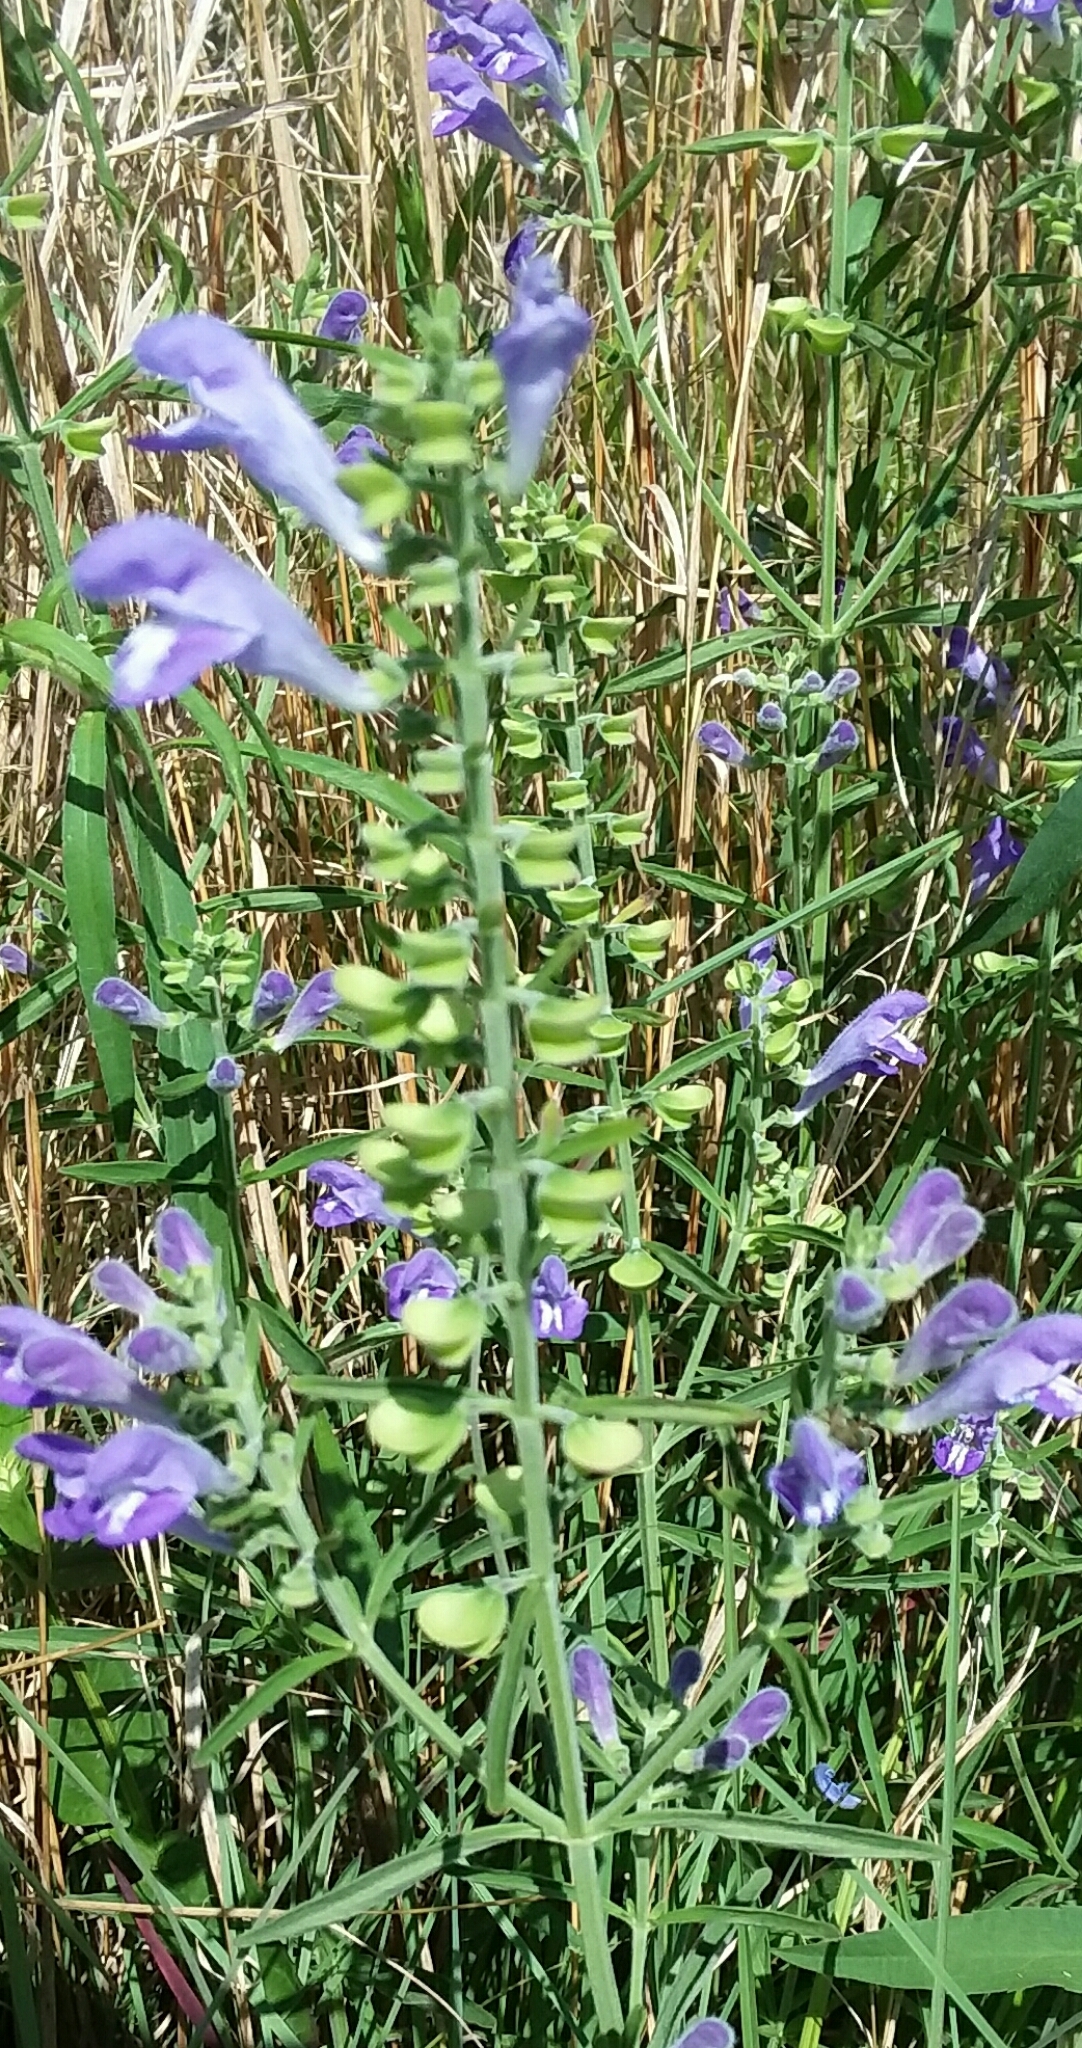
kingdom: Plantae
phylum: Tracheophyta
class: Magnoliopsida
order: Lamiales
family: Lamiaceae
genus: Scutellaria
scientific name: Scutellaria integrifolia
